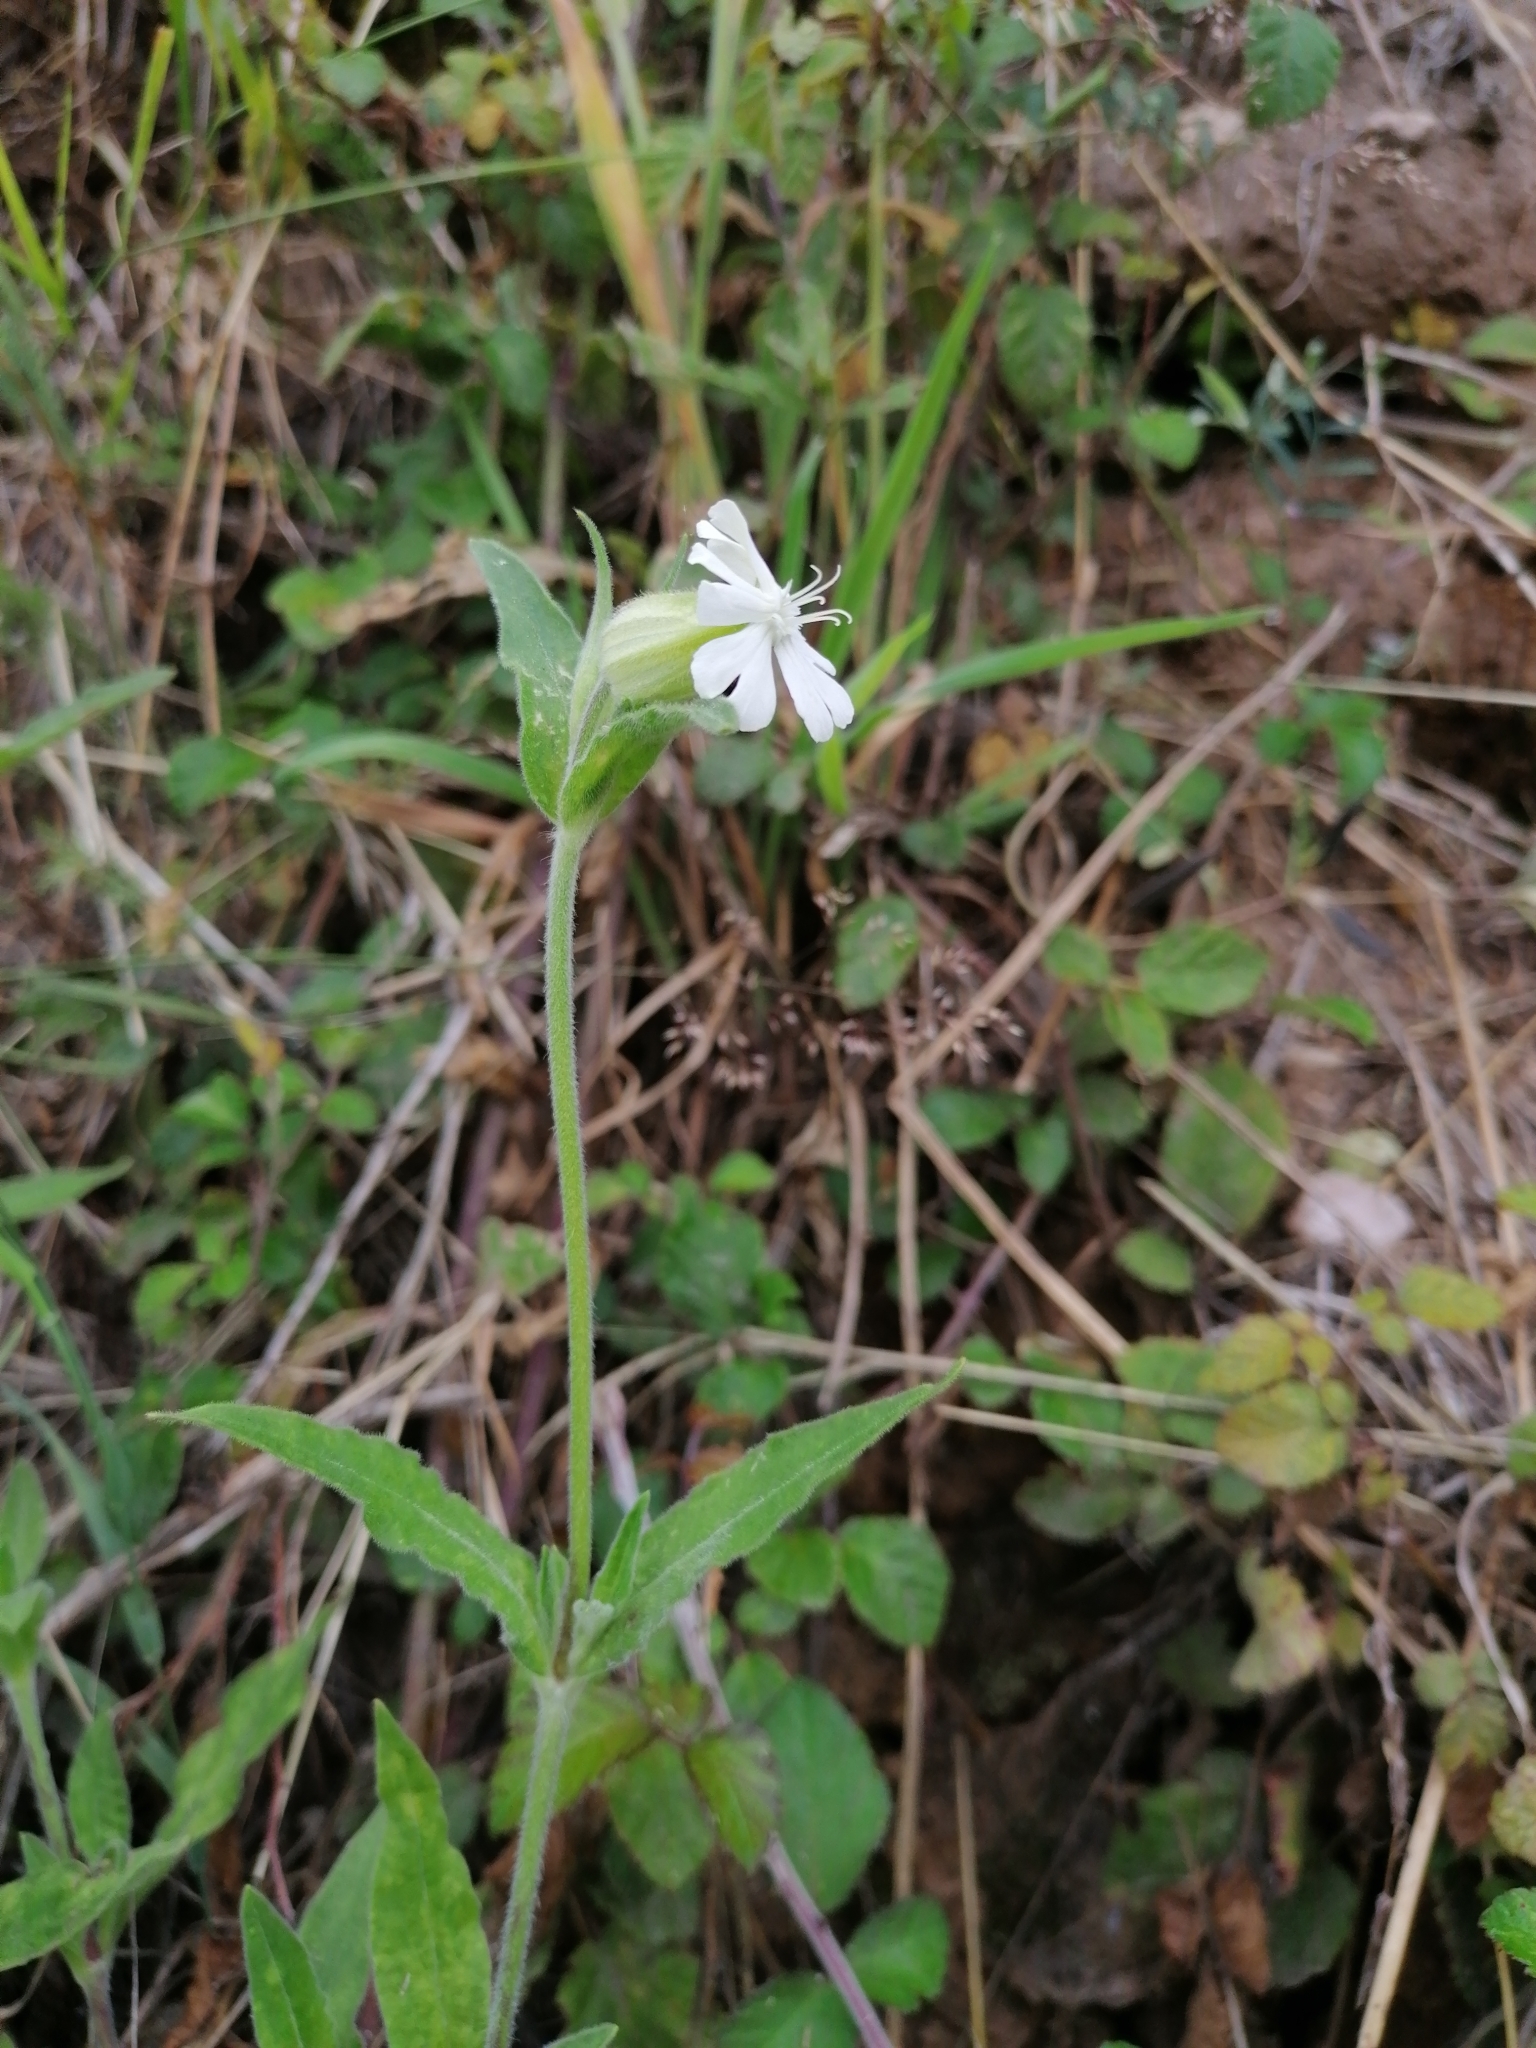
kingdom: Plantae
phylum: Tracheophyta
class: Magnoliopsida
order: Caryophyllales
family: Caryophyllaceae
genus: Silene
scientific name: Silene latifolia
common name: White campion
